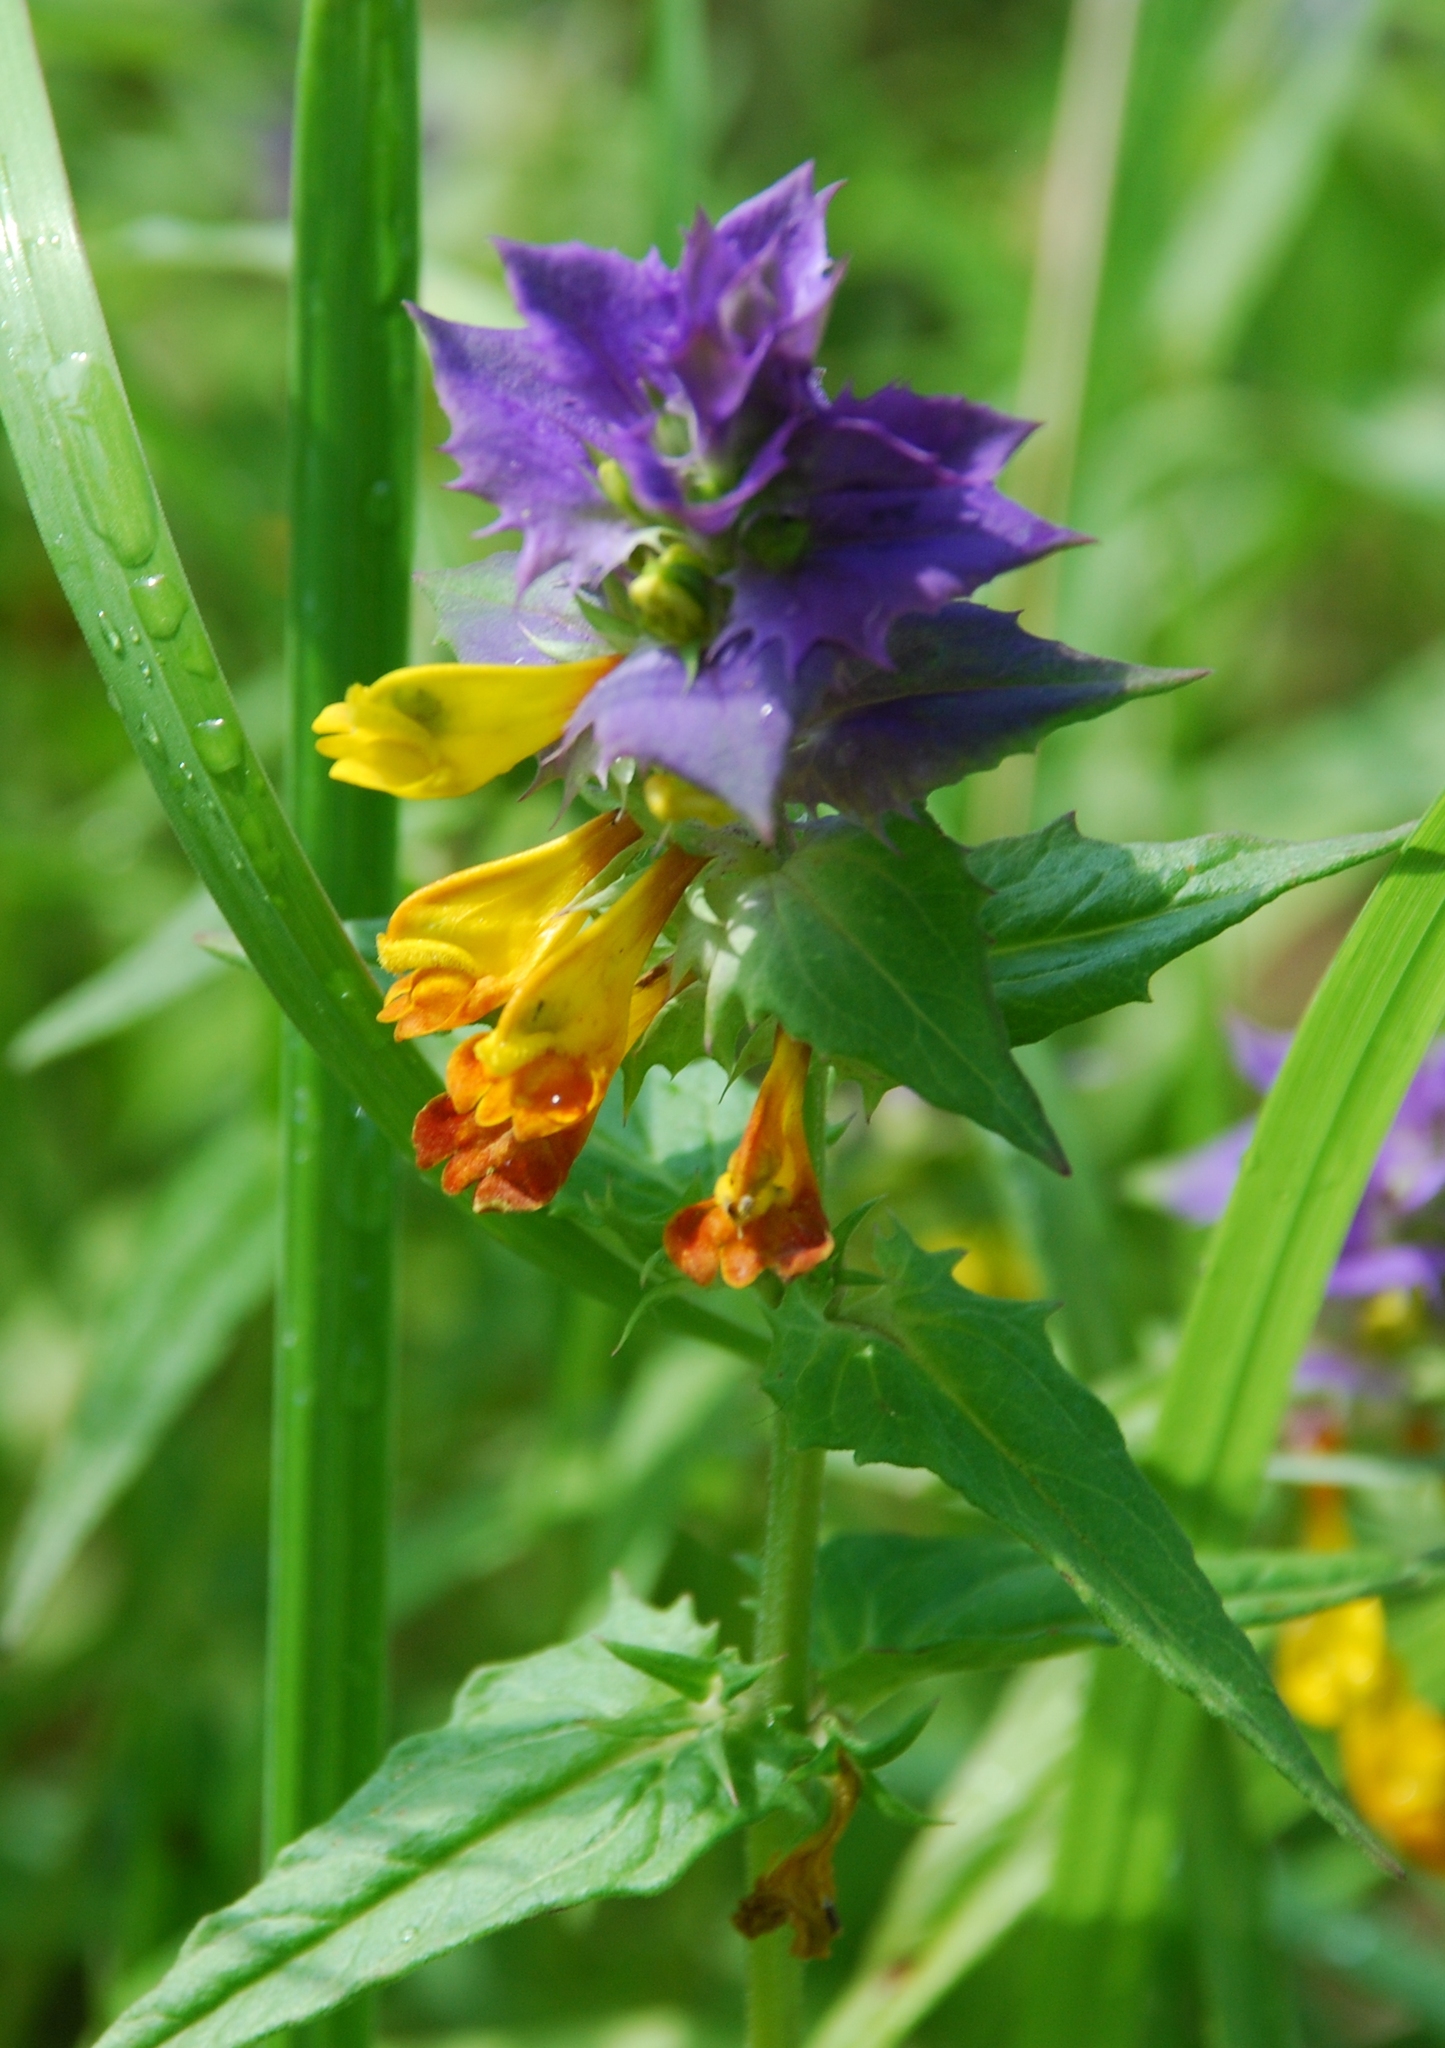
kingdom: Plantae
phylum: Tracheophyta
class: Magnoliopsida
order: Lamiales
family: Orobanchaceae
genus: Melampyrum
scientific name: Melampyrum nemorosum
